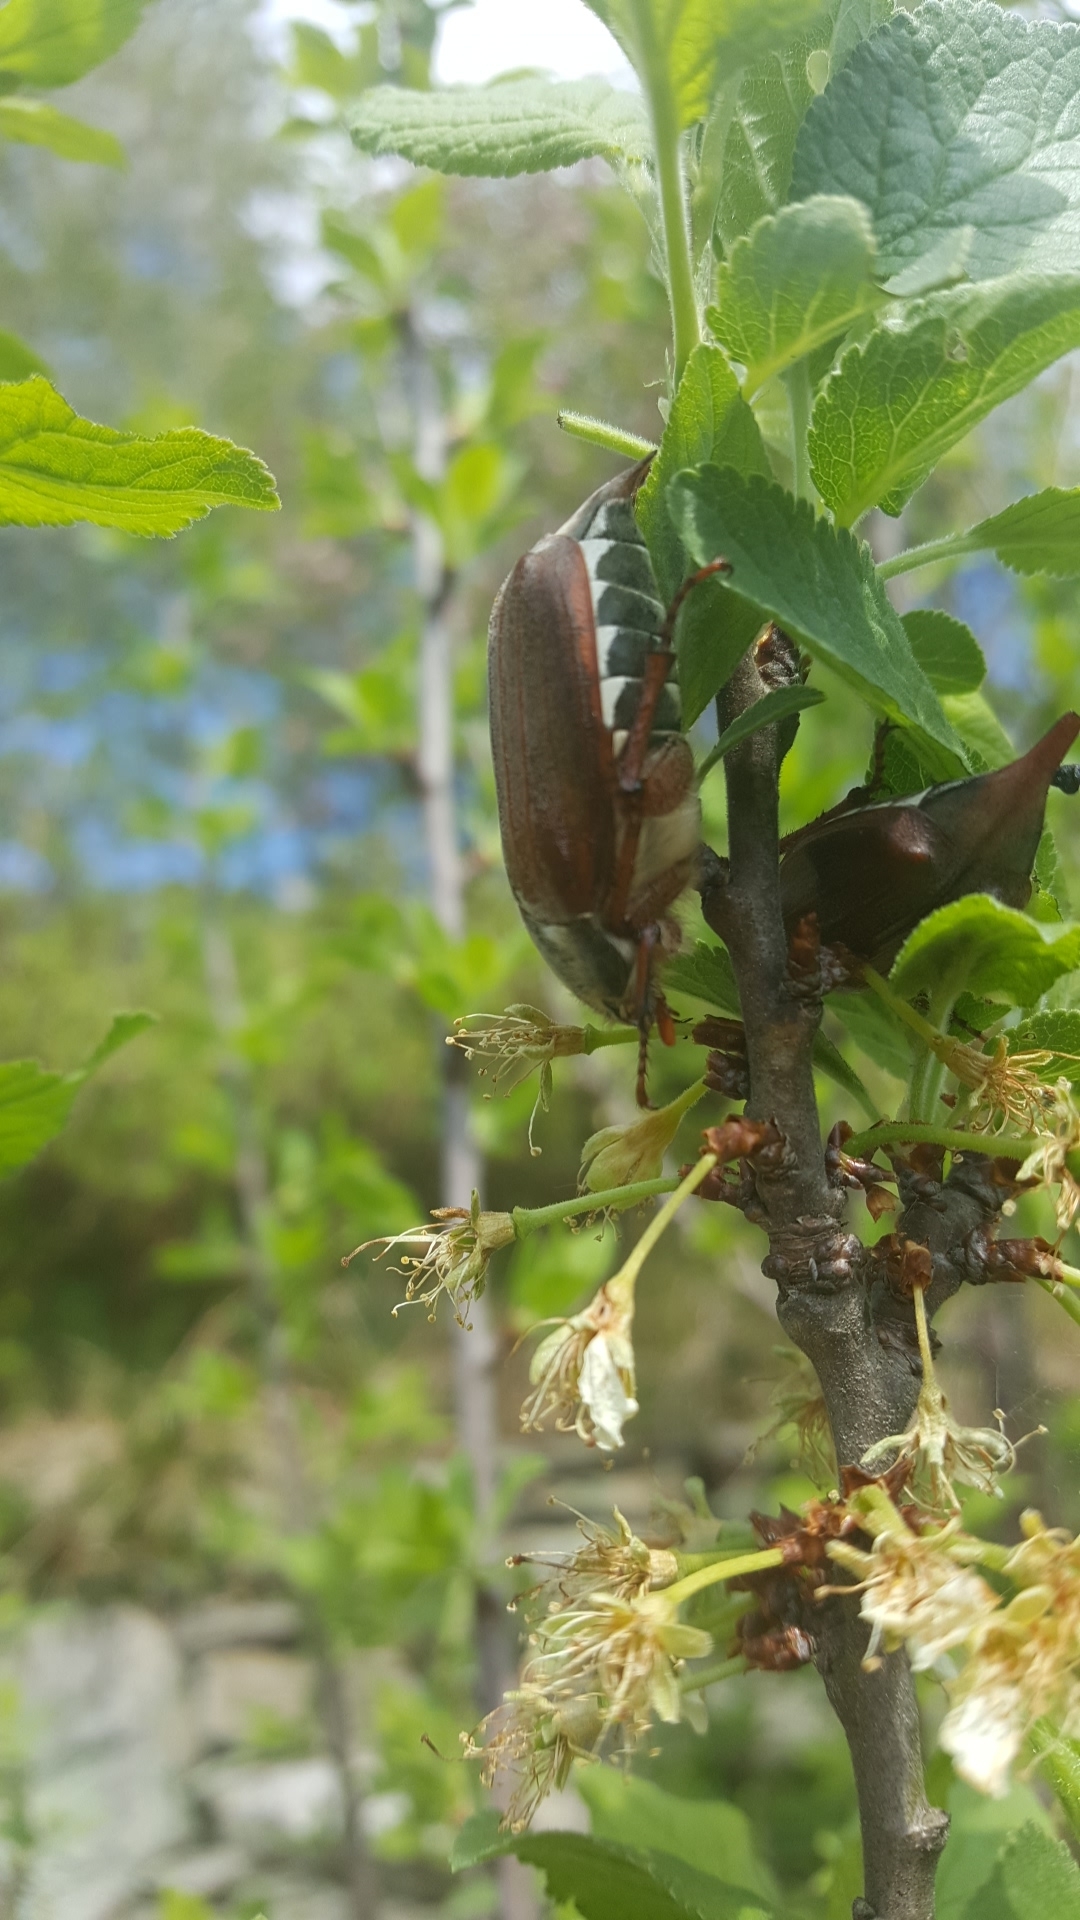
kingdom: Animalia
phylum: Arthropoda
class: Insecta
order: Coleoptera
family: Scarabaeidae
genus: Melolontha
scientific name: Melolontha melolontha
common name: Cockchafer maybeetle
